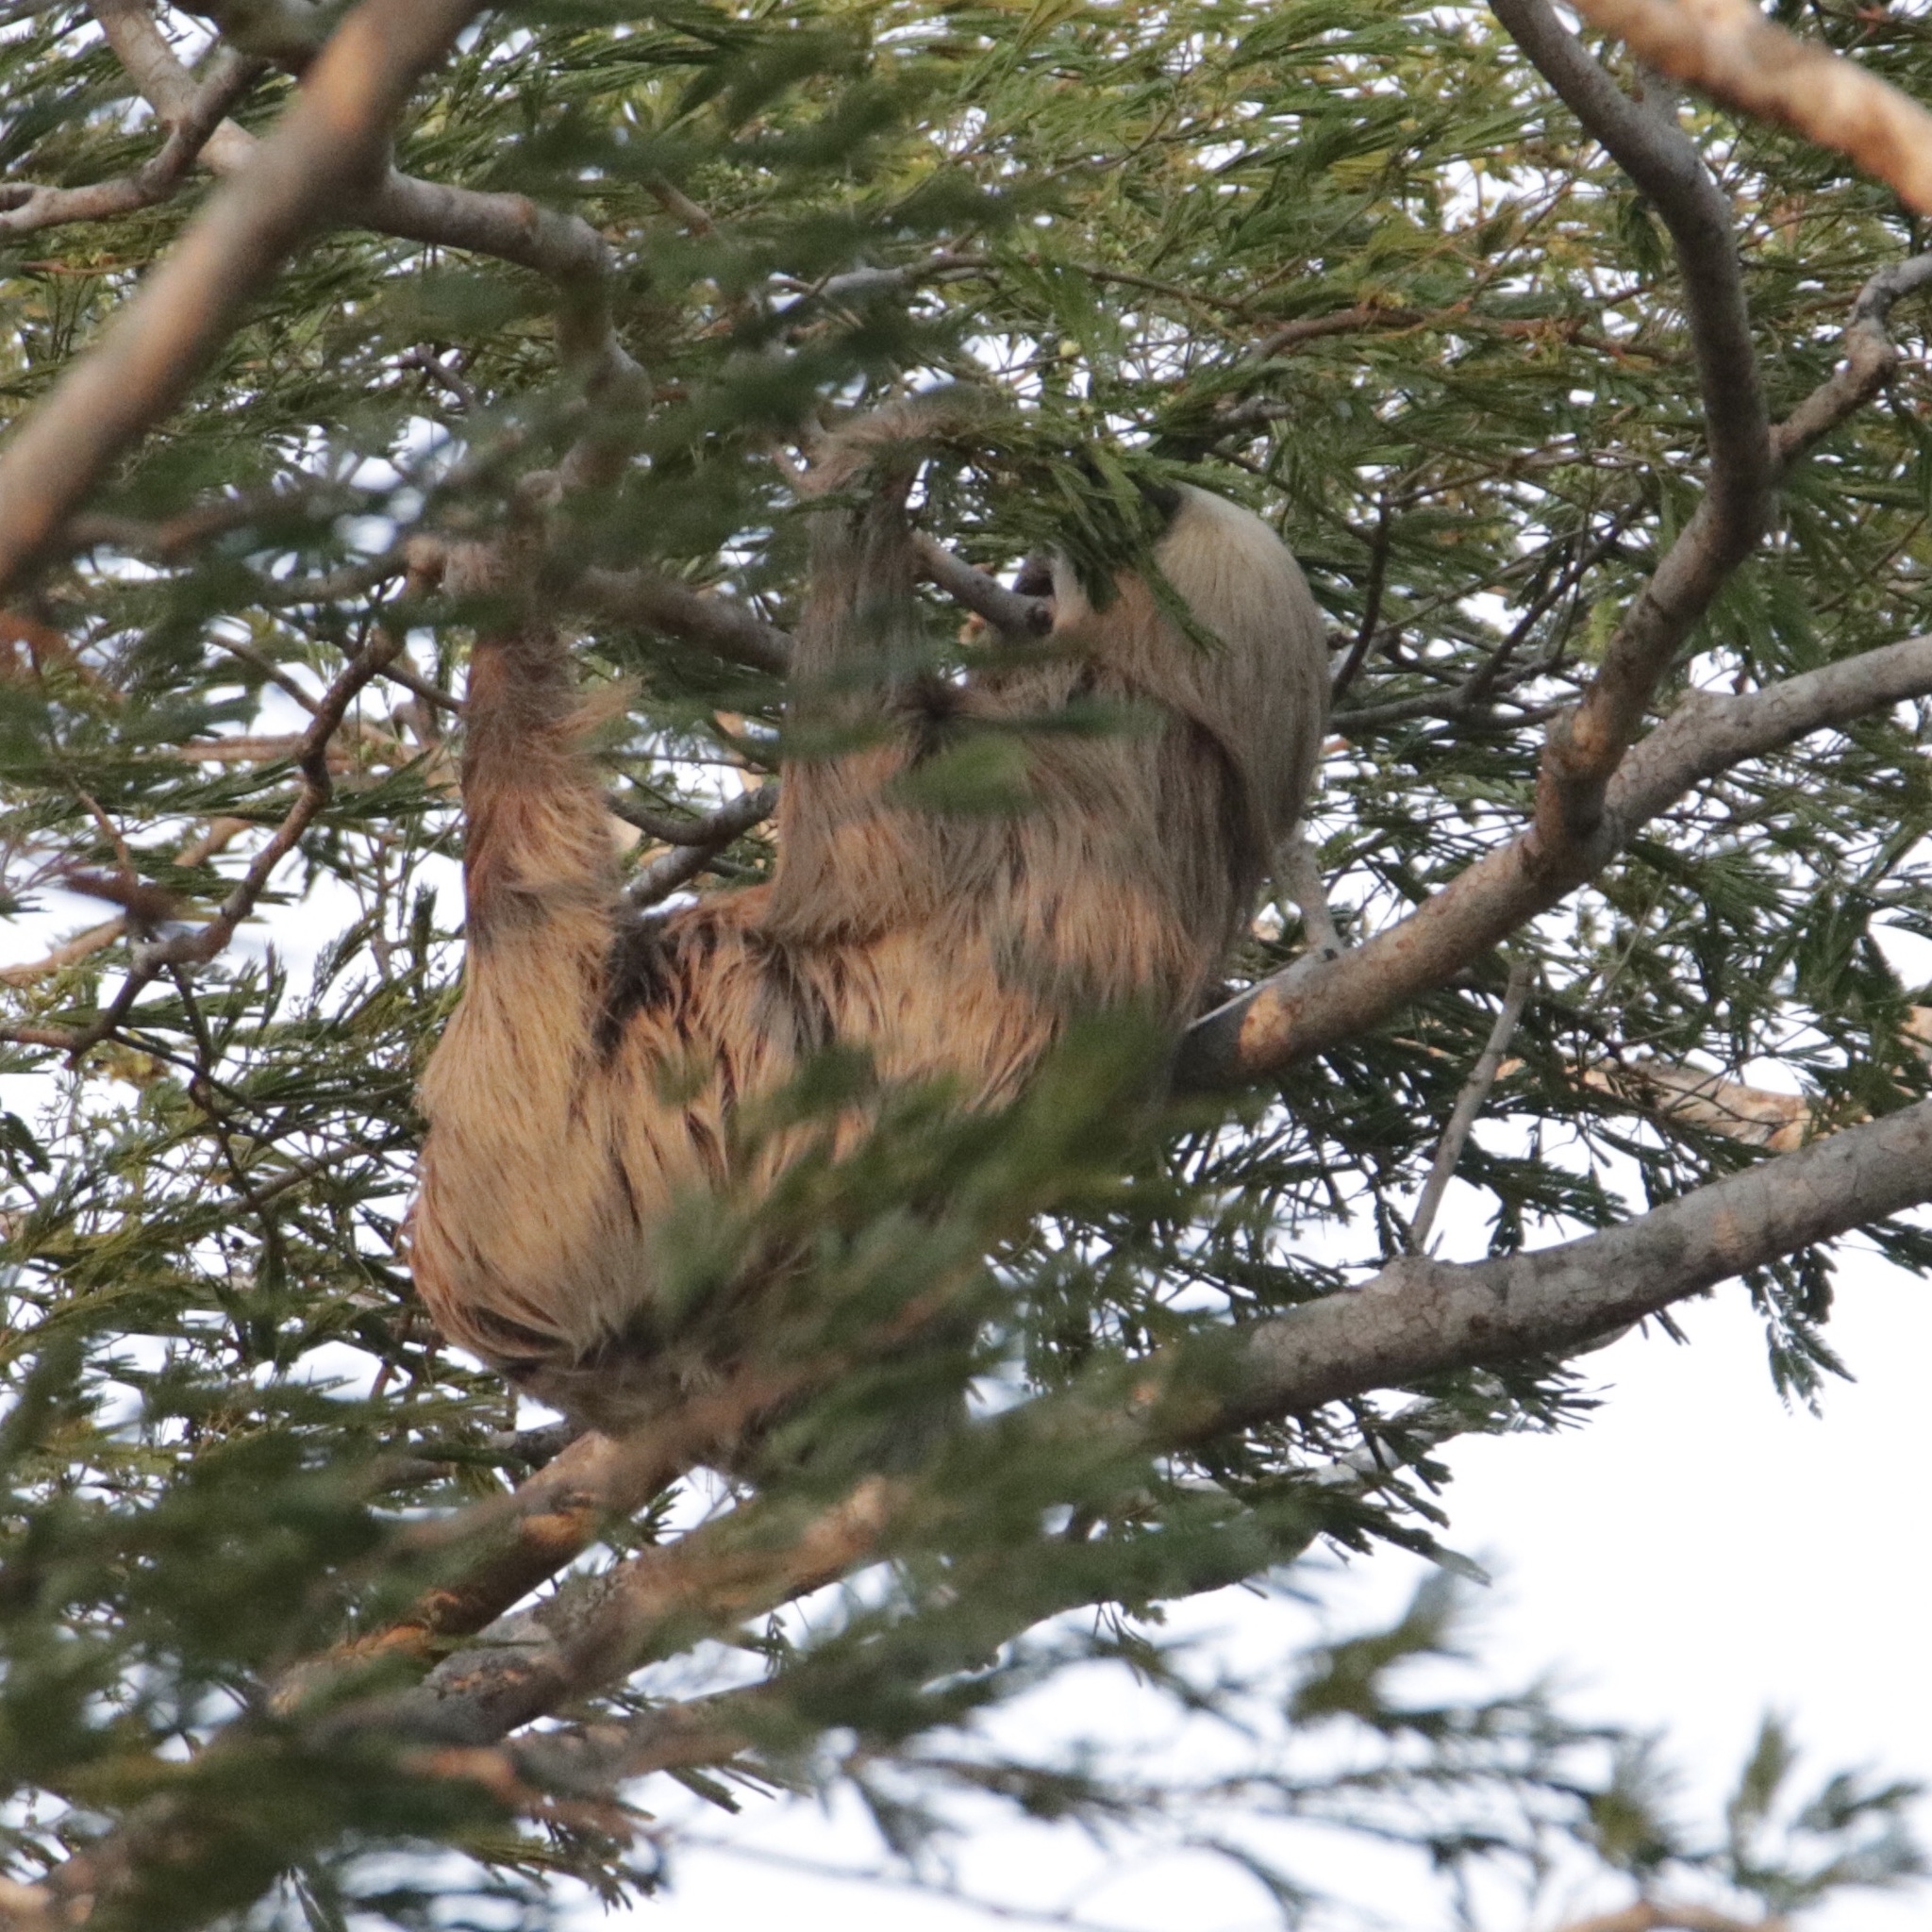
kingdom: Animalia
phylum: Chordata
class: Mammalia
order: Pilosa
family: Megalonychidae
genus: Choloepus
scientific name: Choloepus hoffmanni
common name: Hoffmann's two-toed sloth
